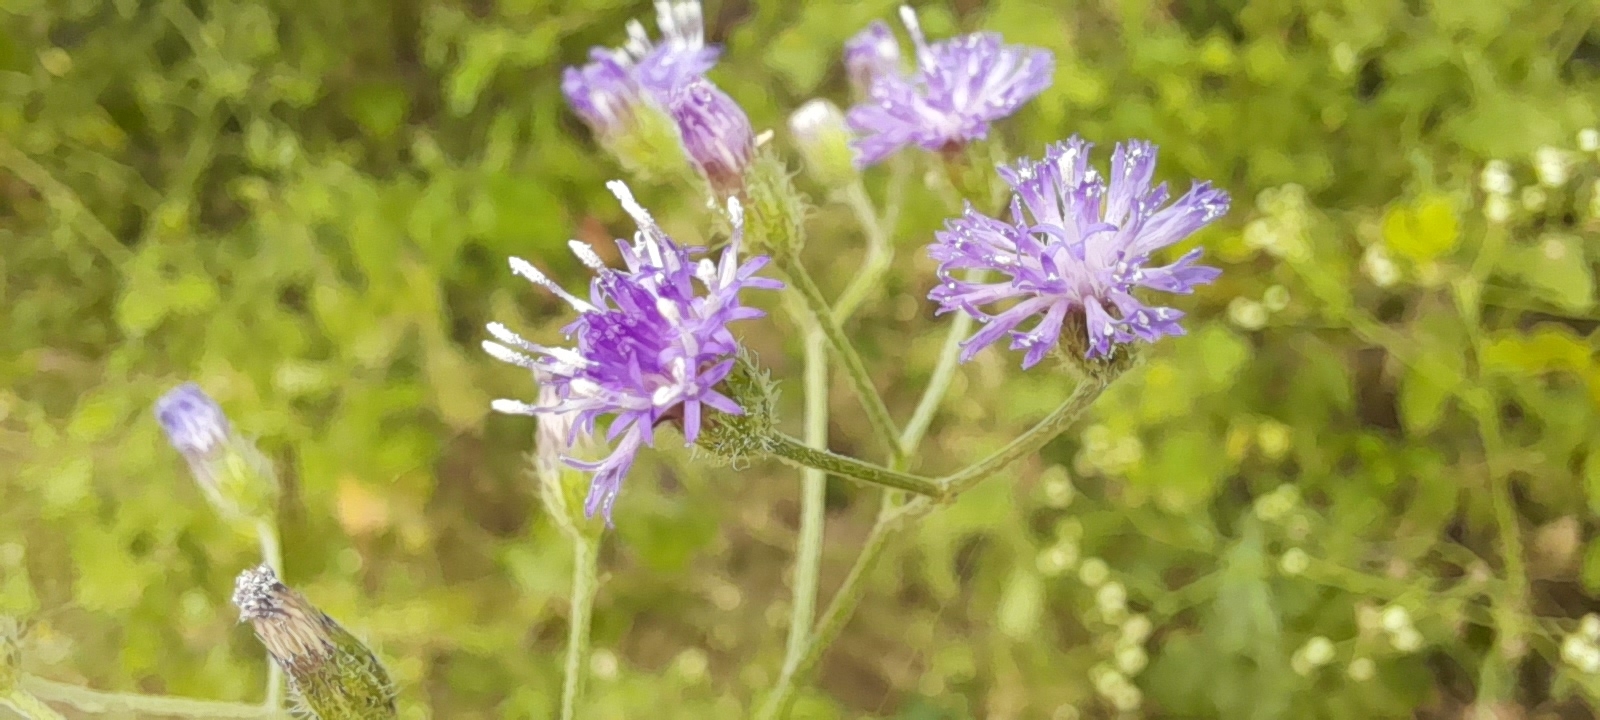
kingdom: Plantae
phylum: Tracheophyta
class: Magnoliopsida
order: Asterales
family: Asteraceae
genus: Cyanthillium
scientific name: Cyanthillium cinereum
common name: Little ironweed
